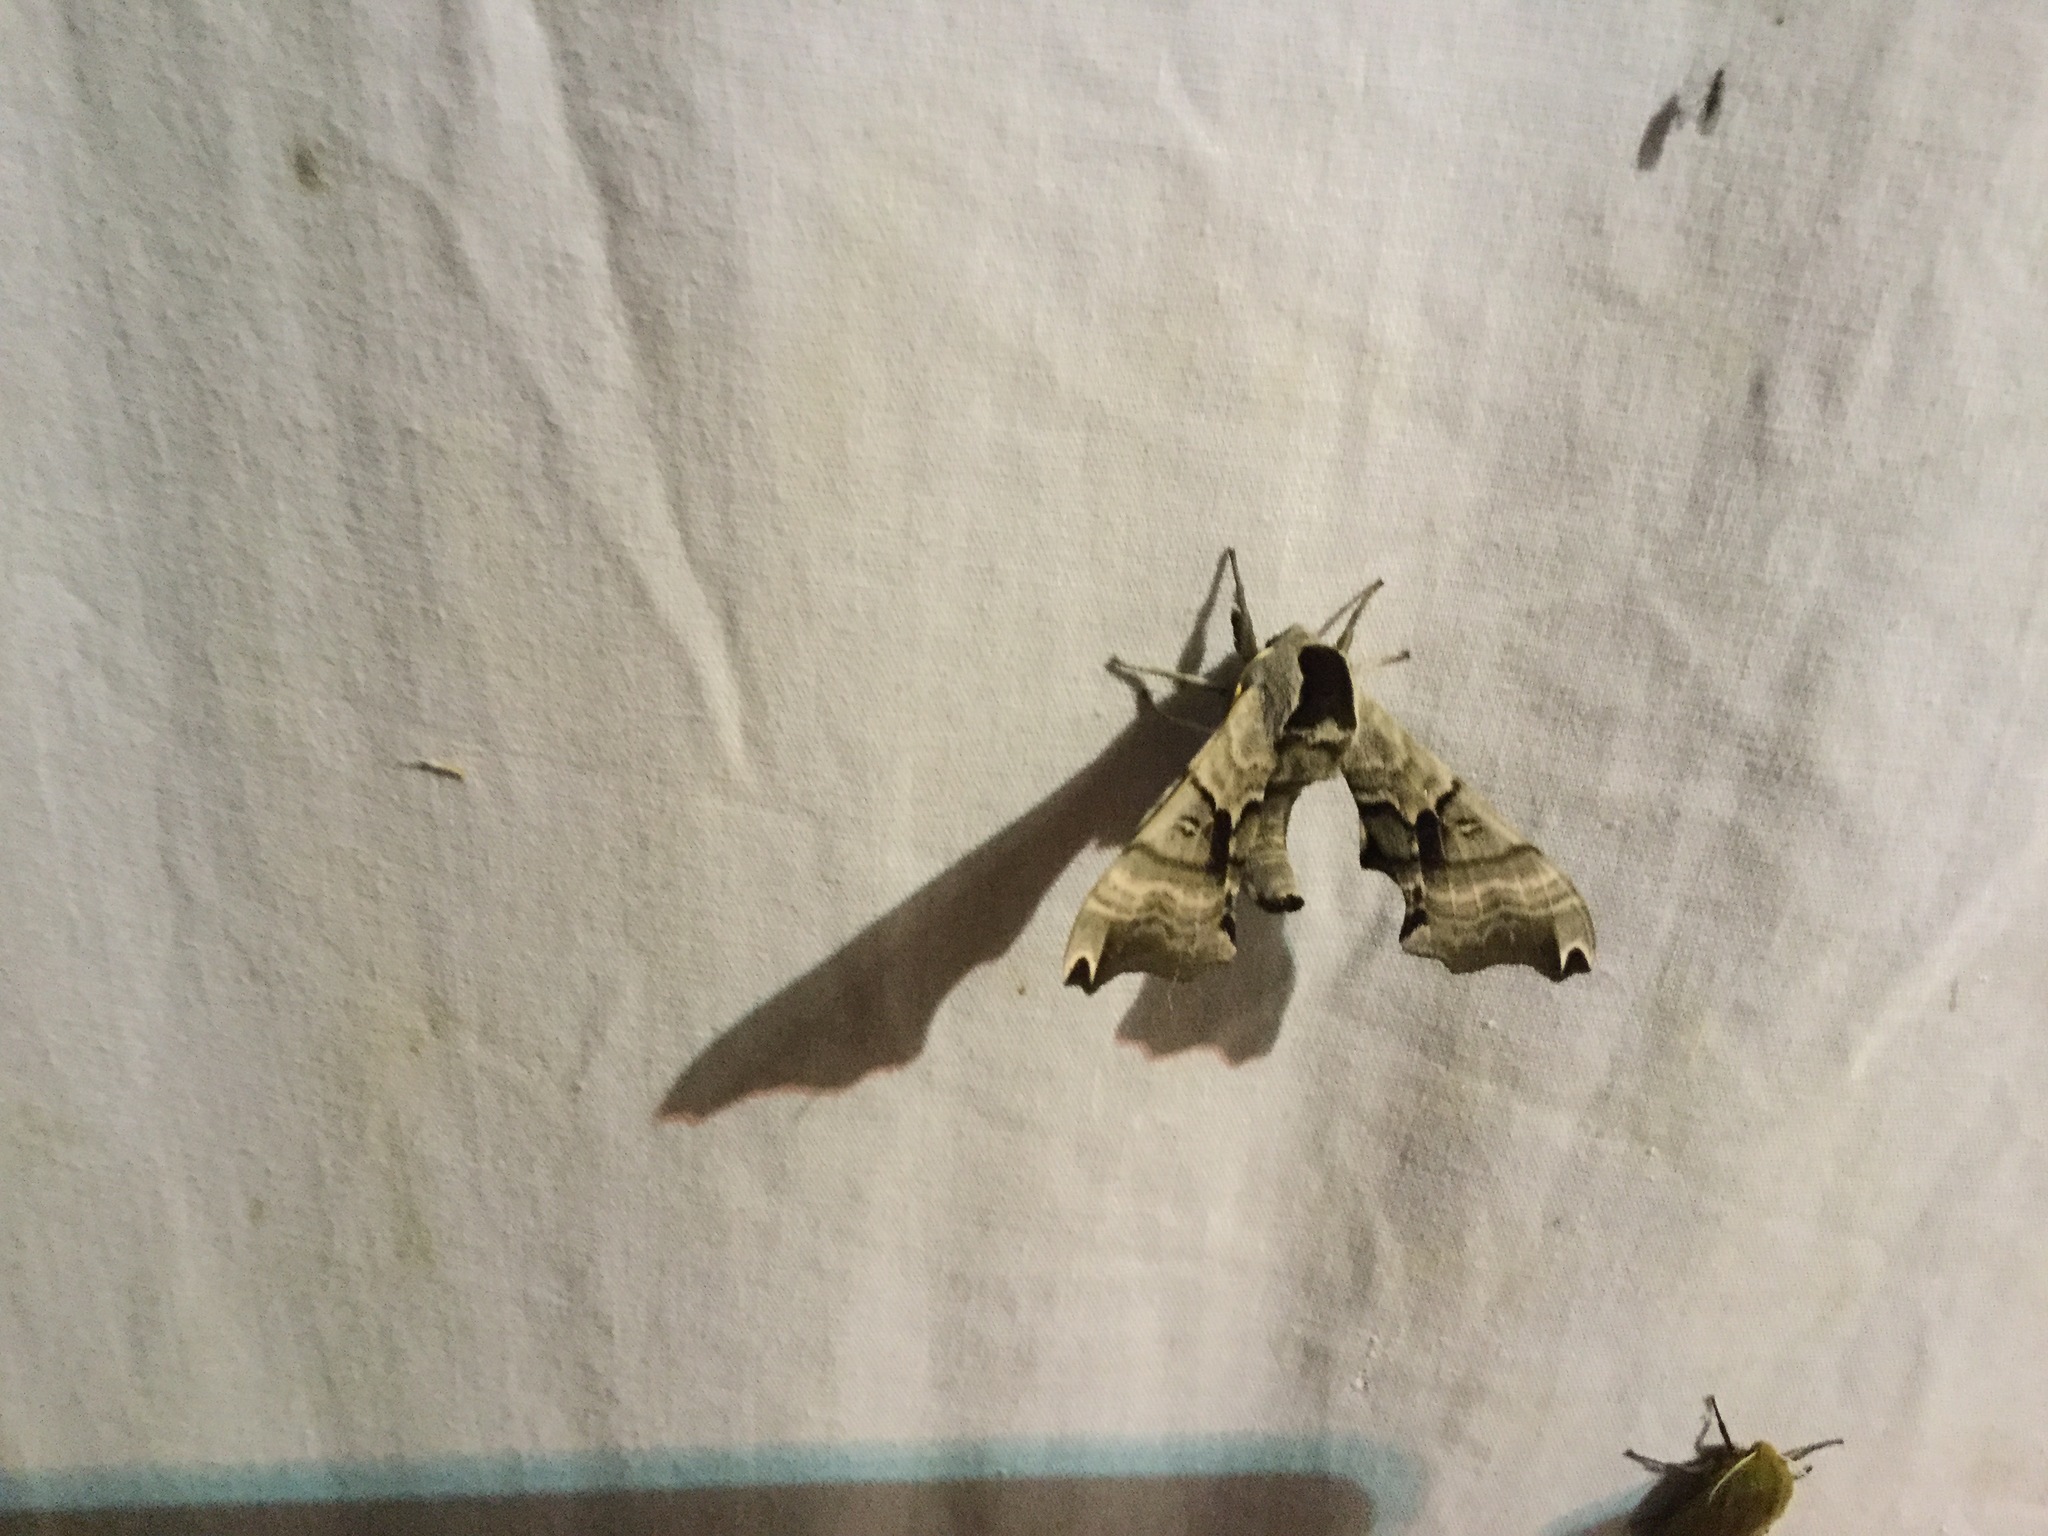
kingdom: Animalia
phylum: Arthropoda
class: Insecta
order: Lepidoptera
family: Sphingidae
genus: Smerinthus
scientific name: Smerinthus jamaicensis
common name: Twin spotted sphinx
